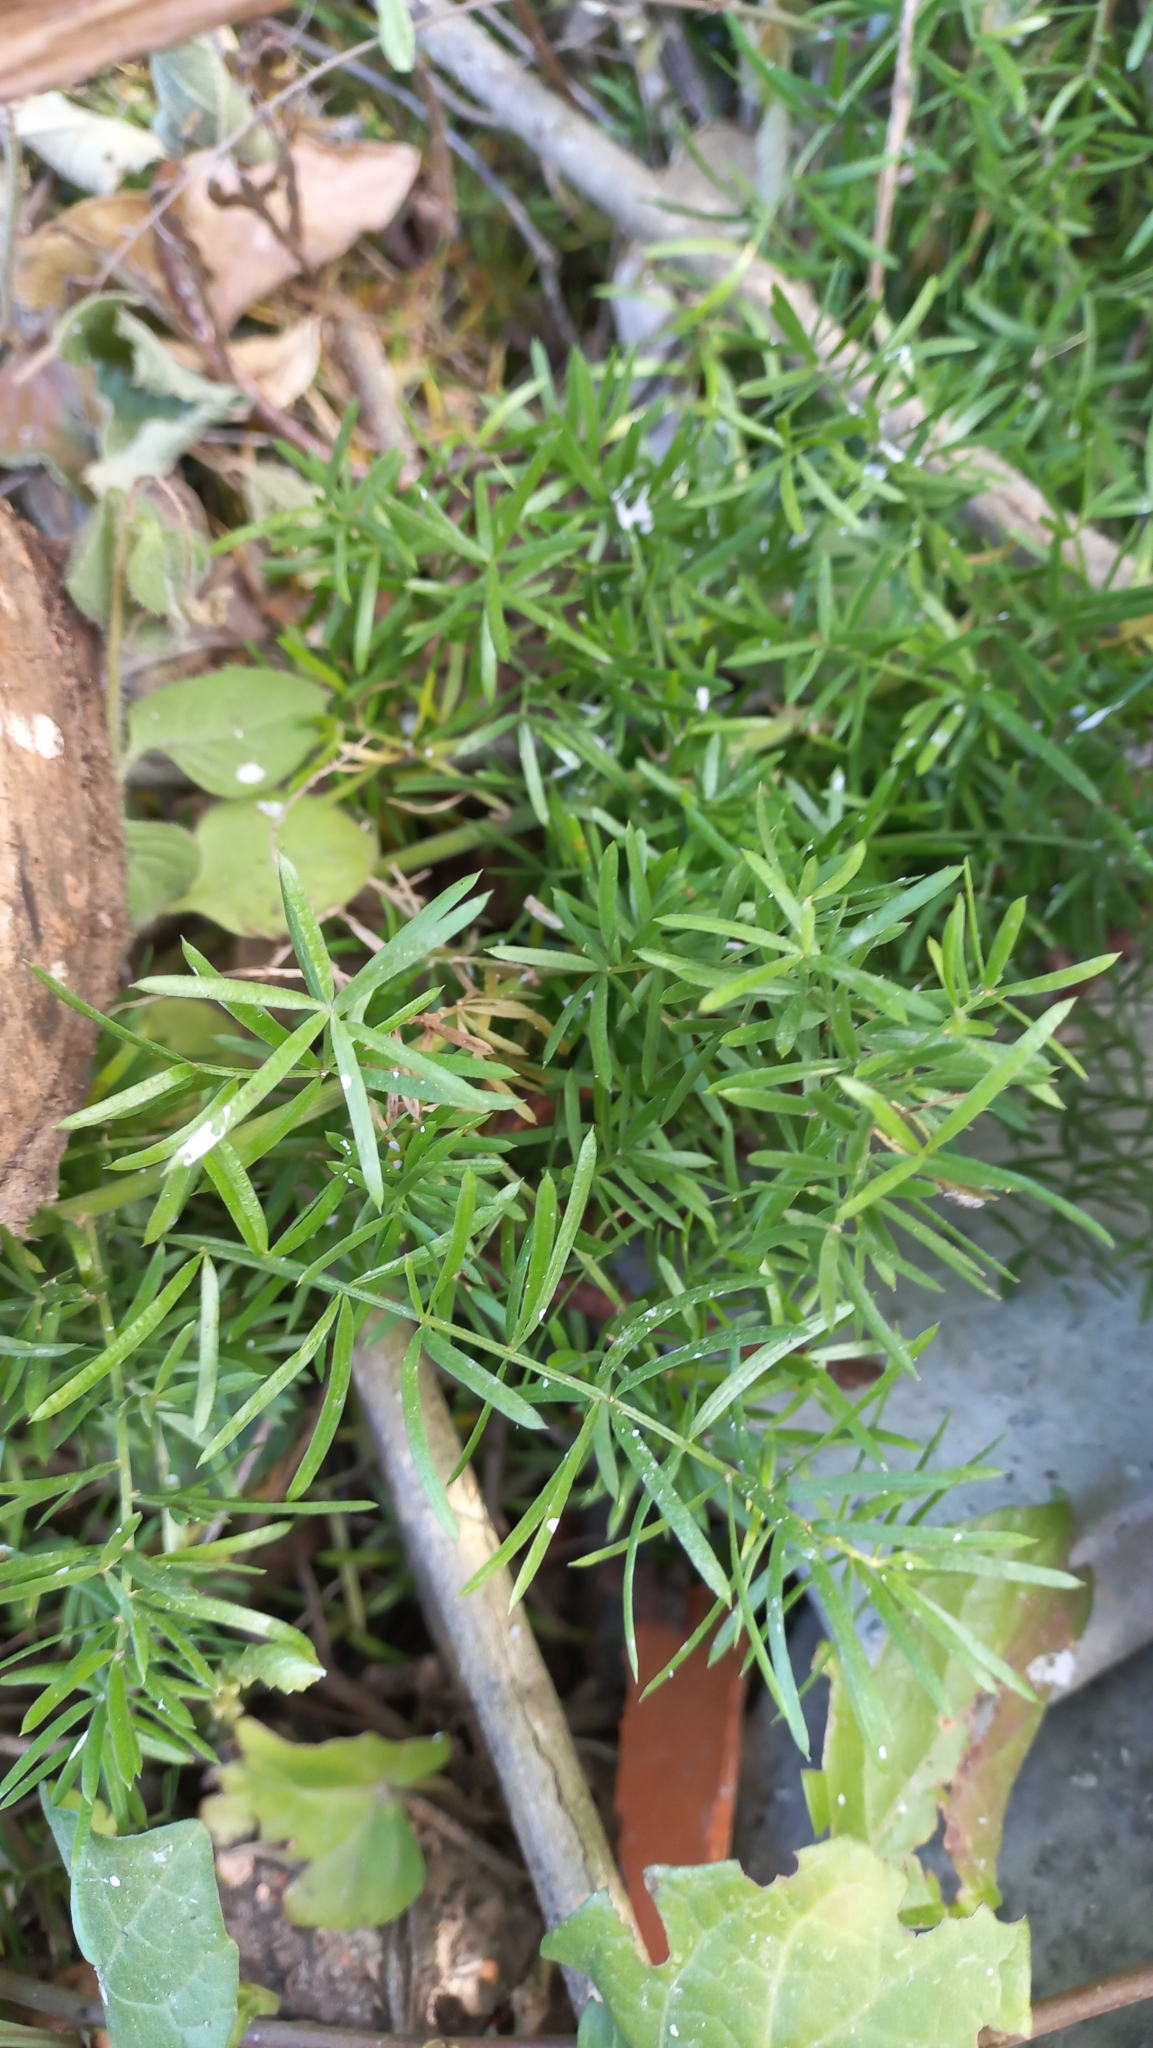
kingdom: Plantae
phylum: Tracheophyta
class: Liliopsida
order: Asparagales
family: Asparagaceae
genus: Asparagus
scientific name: Asparagus aethiopicus
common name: Sprenger's asparagus fern
